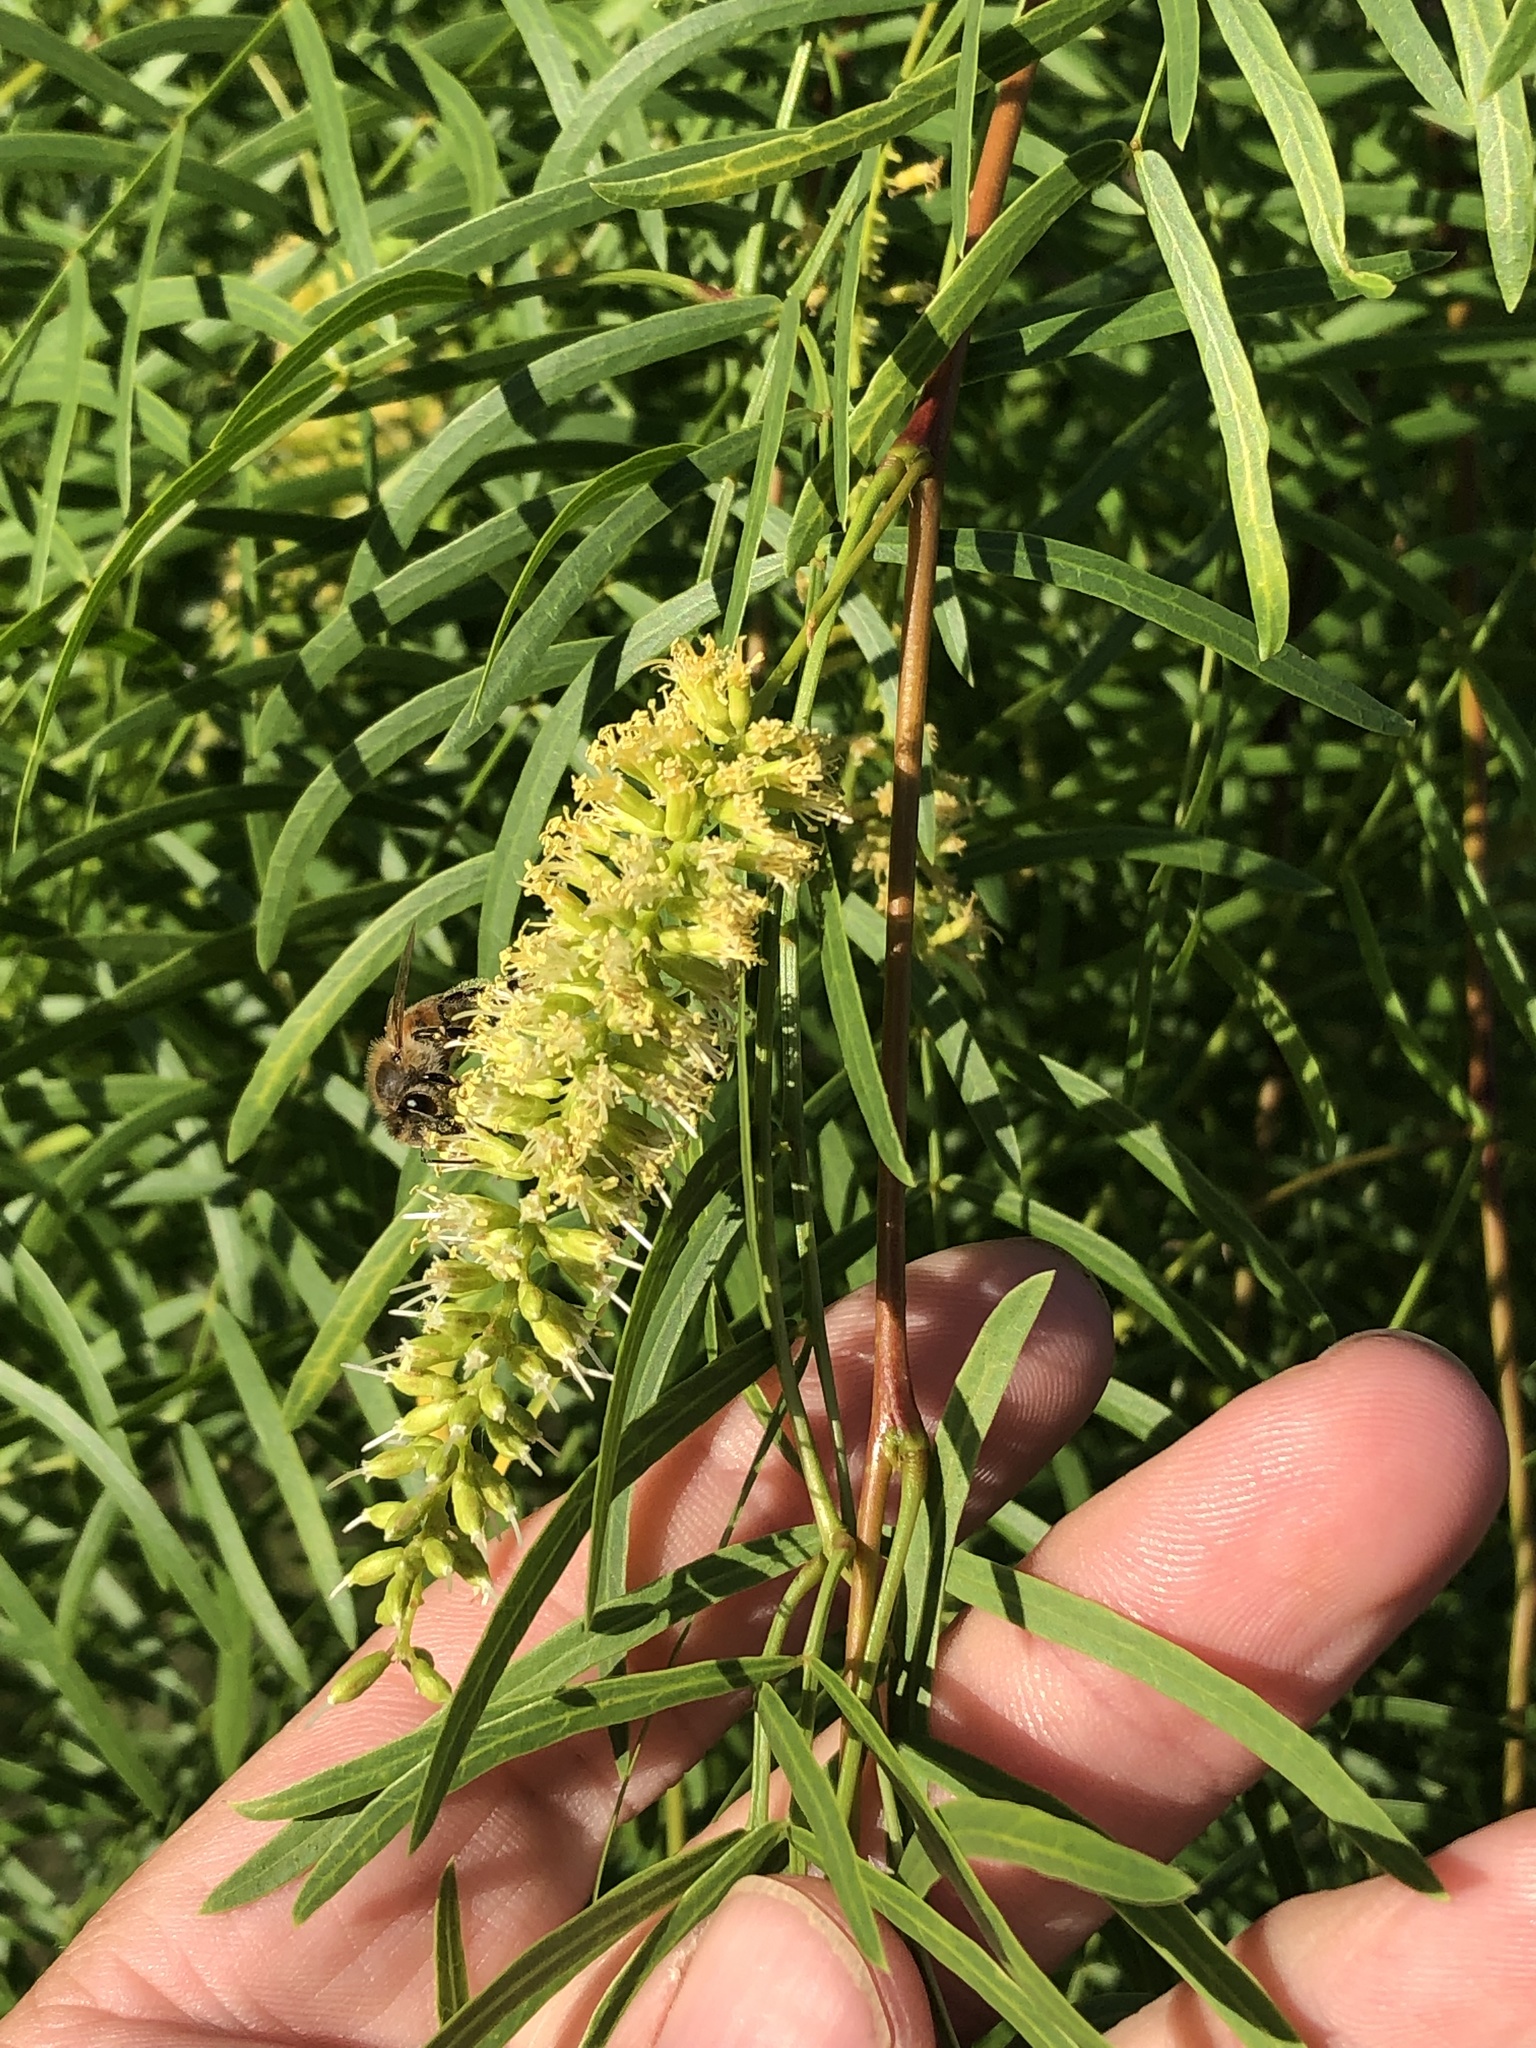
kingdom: Plantae
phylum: Tracheophyta
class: Magnoliopsida
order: Fabales
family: Fabaceae
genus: Prosopis
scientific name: Prosopis glandulosa
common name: Honey mesquite
